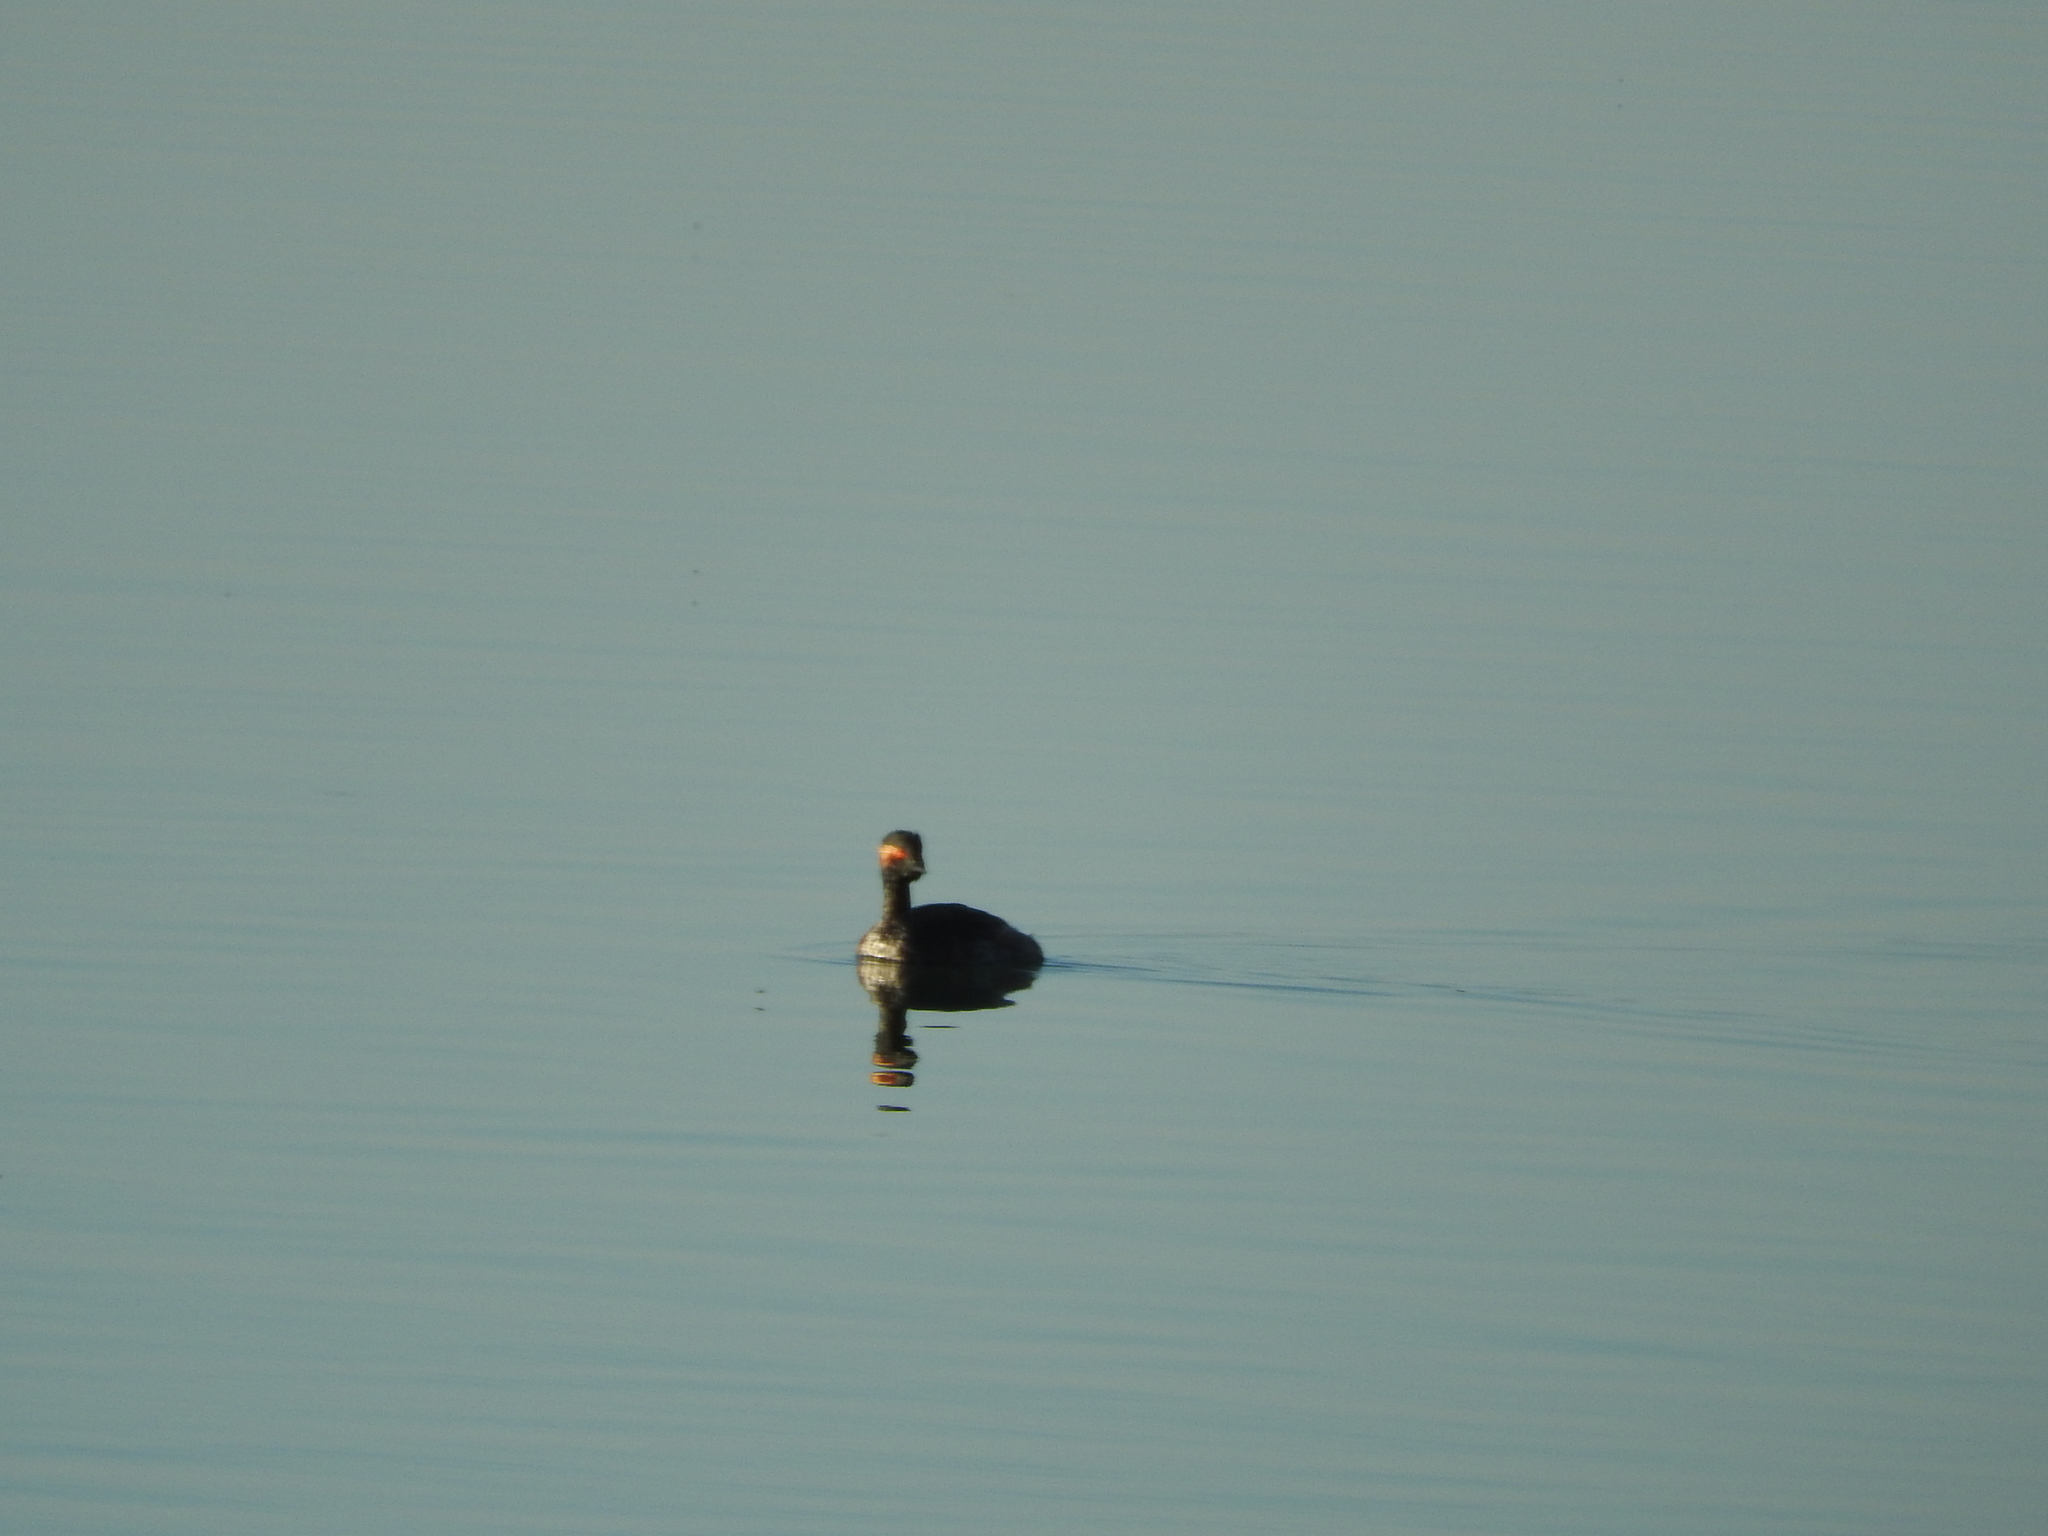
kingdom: Animalia
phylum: Chordata
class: Aves
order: Podicipediformes
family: Podicipedidae
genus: Podiceps
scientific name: Podiceps nigricollis
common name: Black-necked grebe
